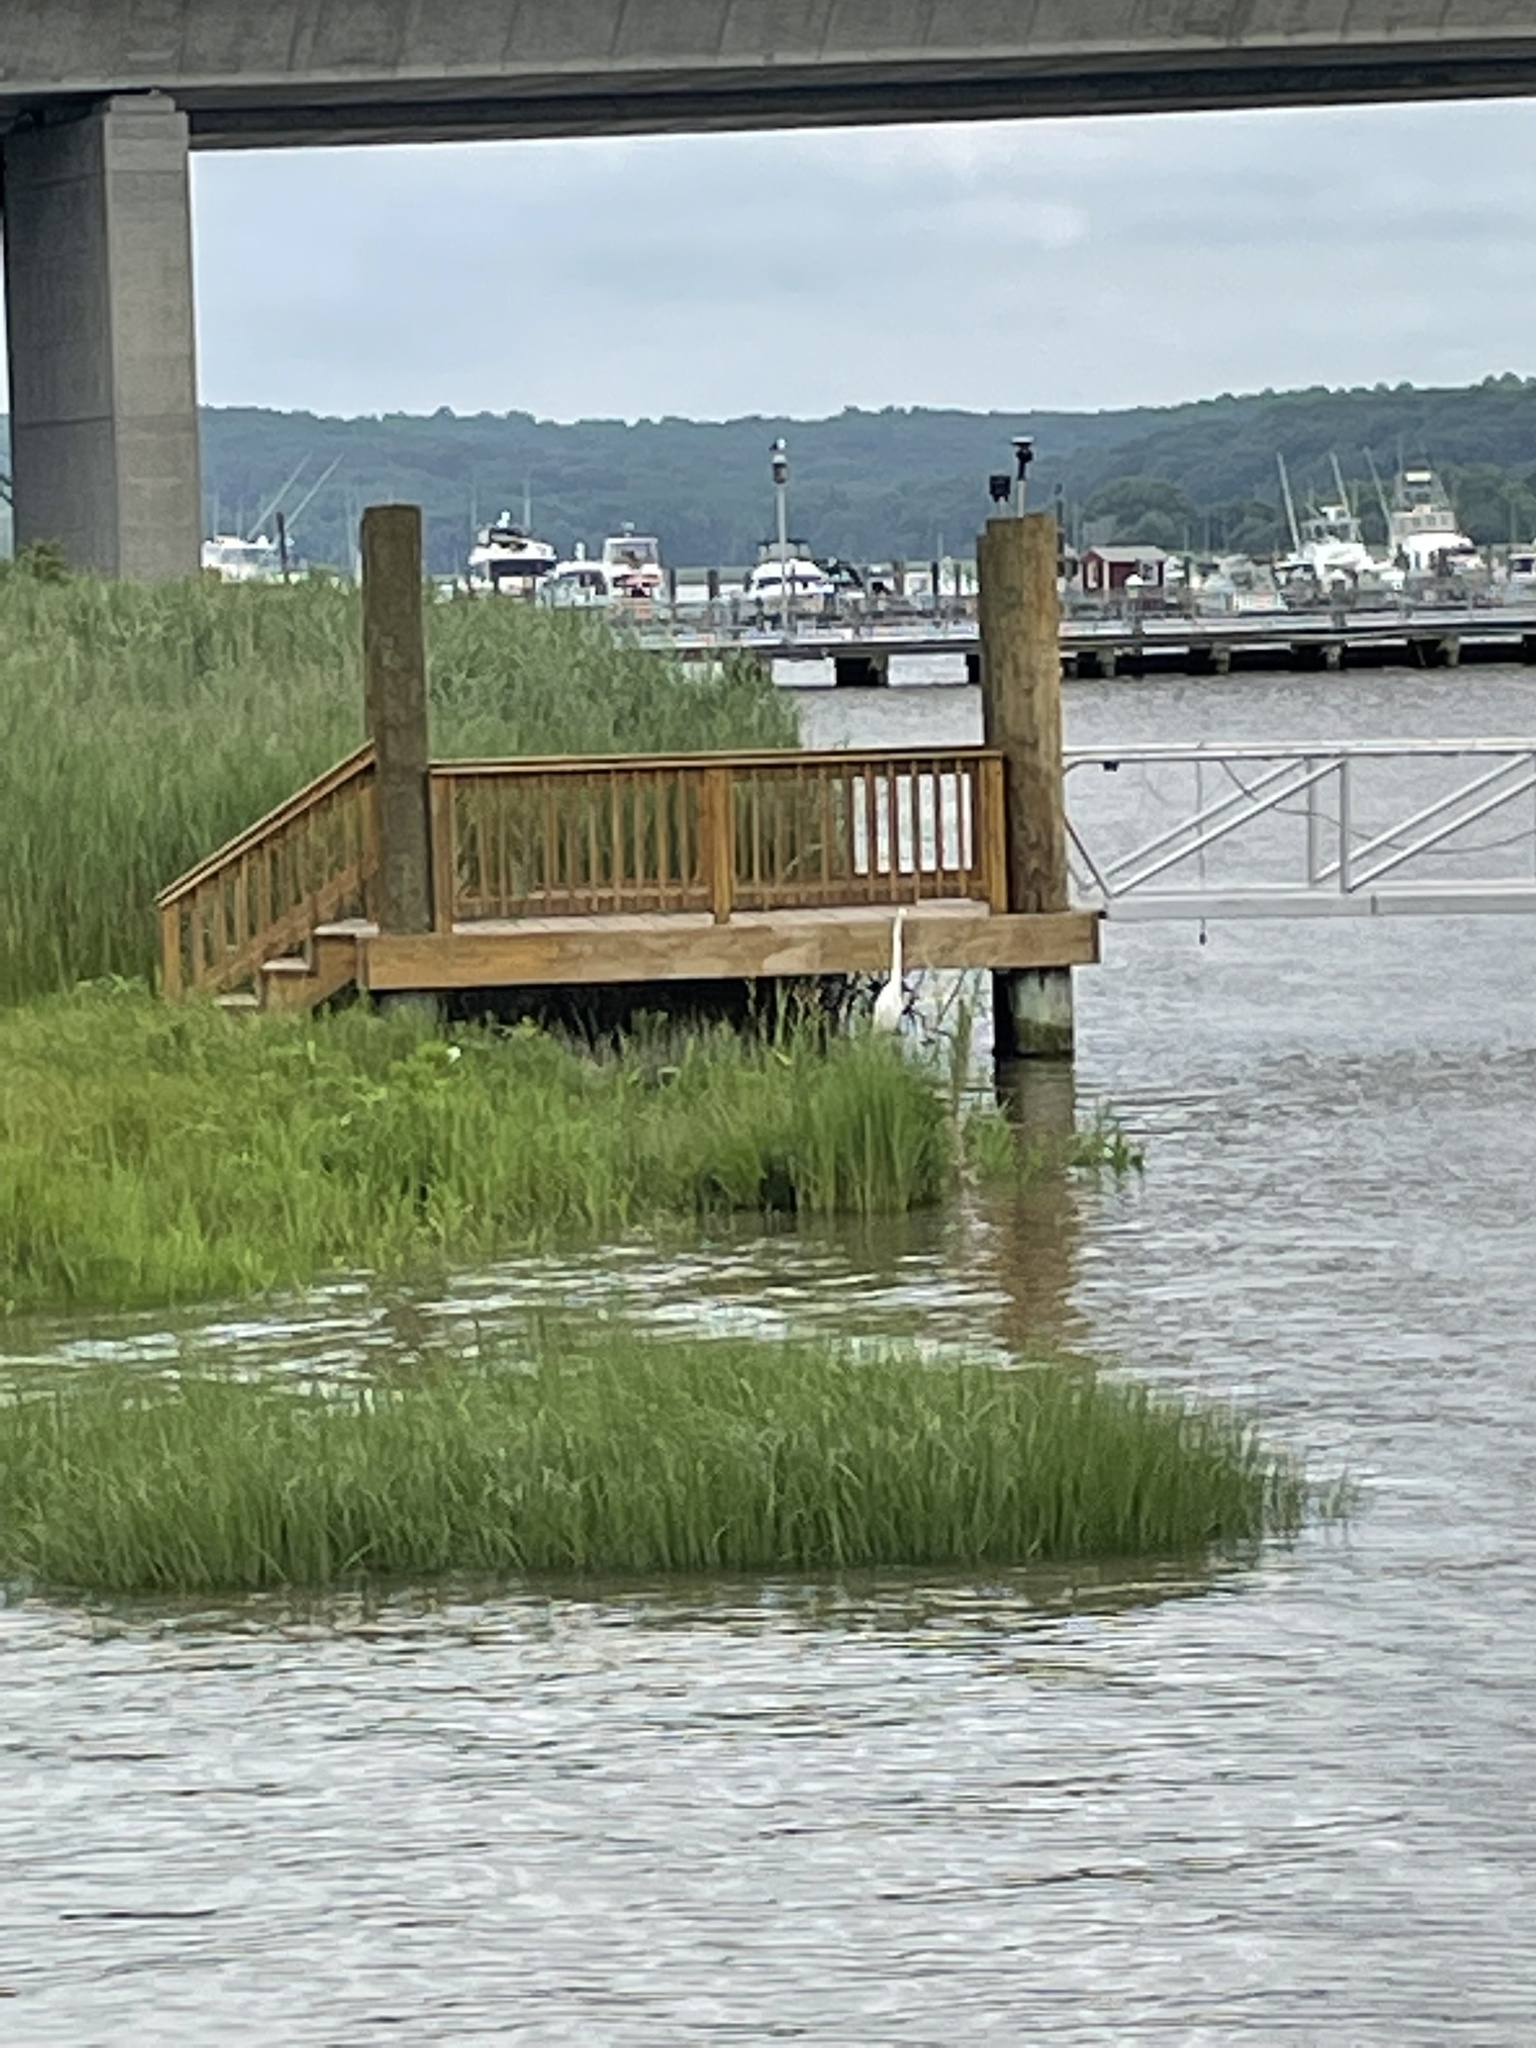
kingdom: Animalia
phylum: Chordata
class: Aves
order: Pelecaniformes
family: Ardeidae
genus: Ardea
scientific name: Ardea alba
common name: Great egret
